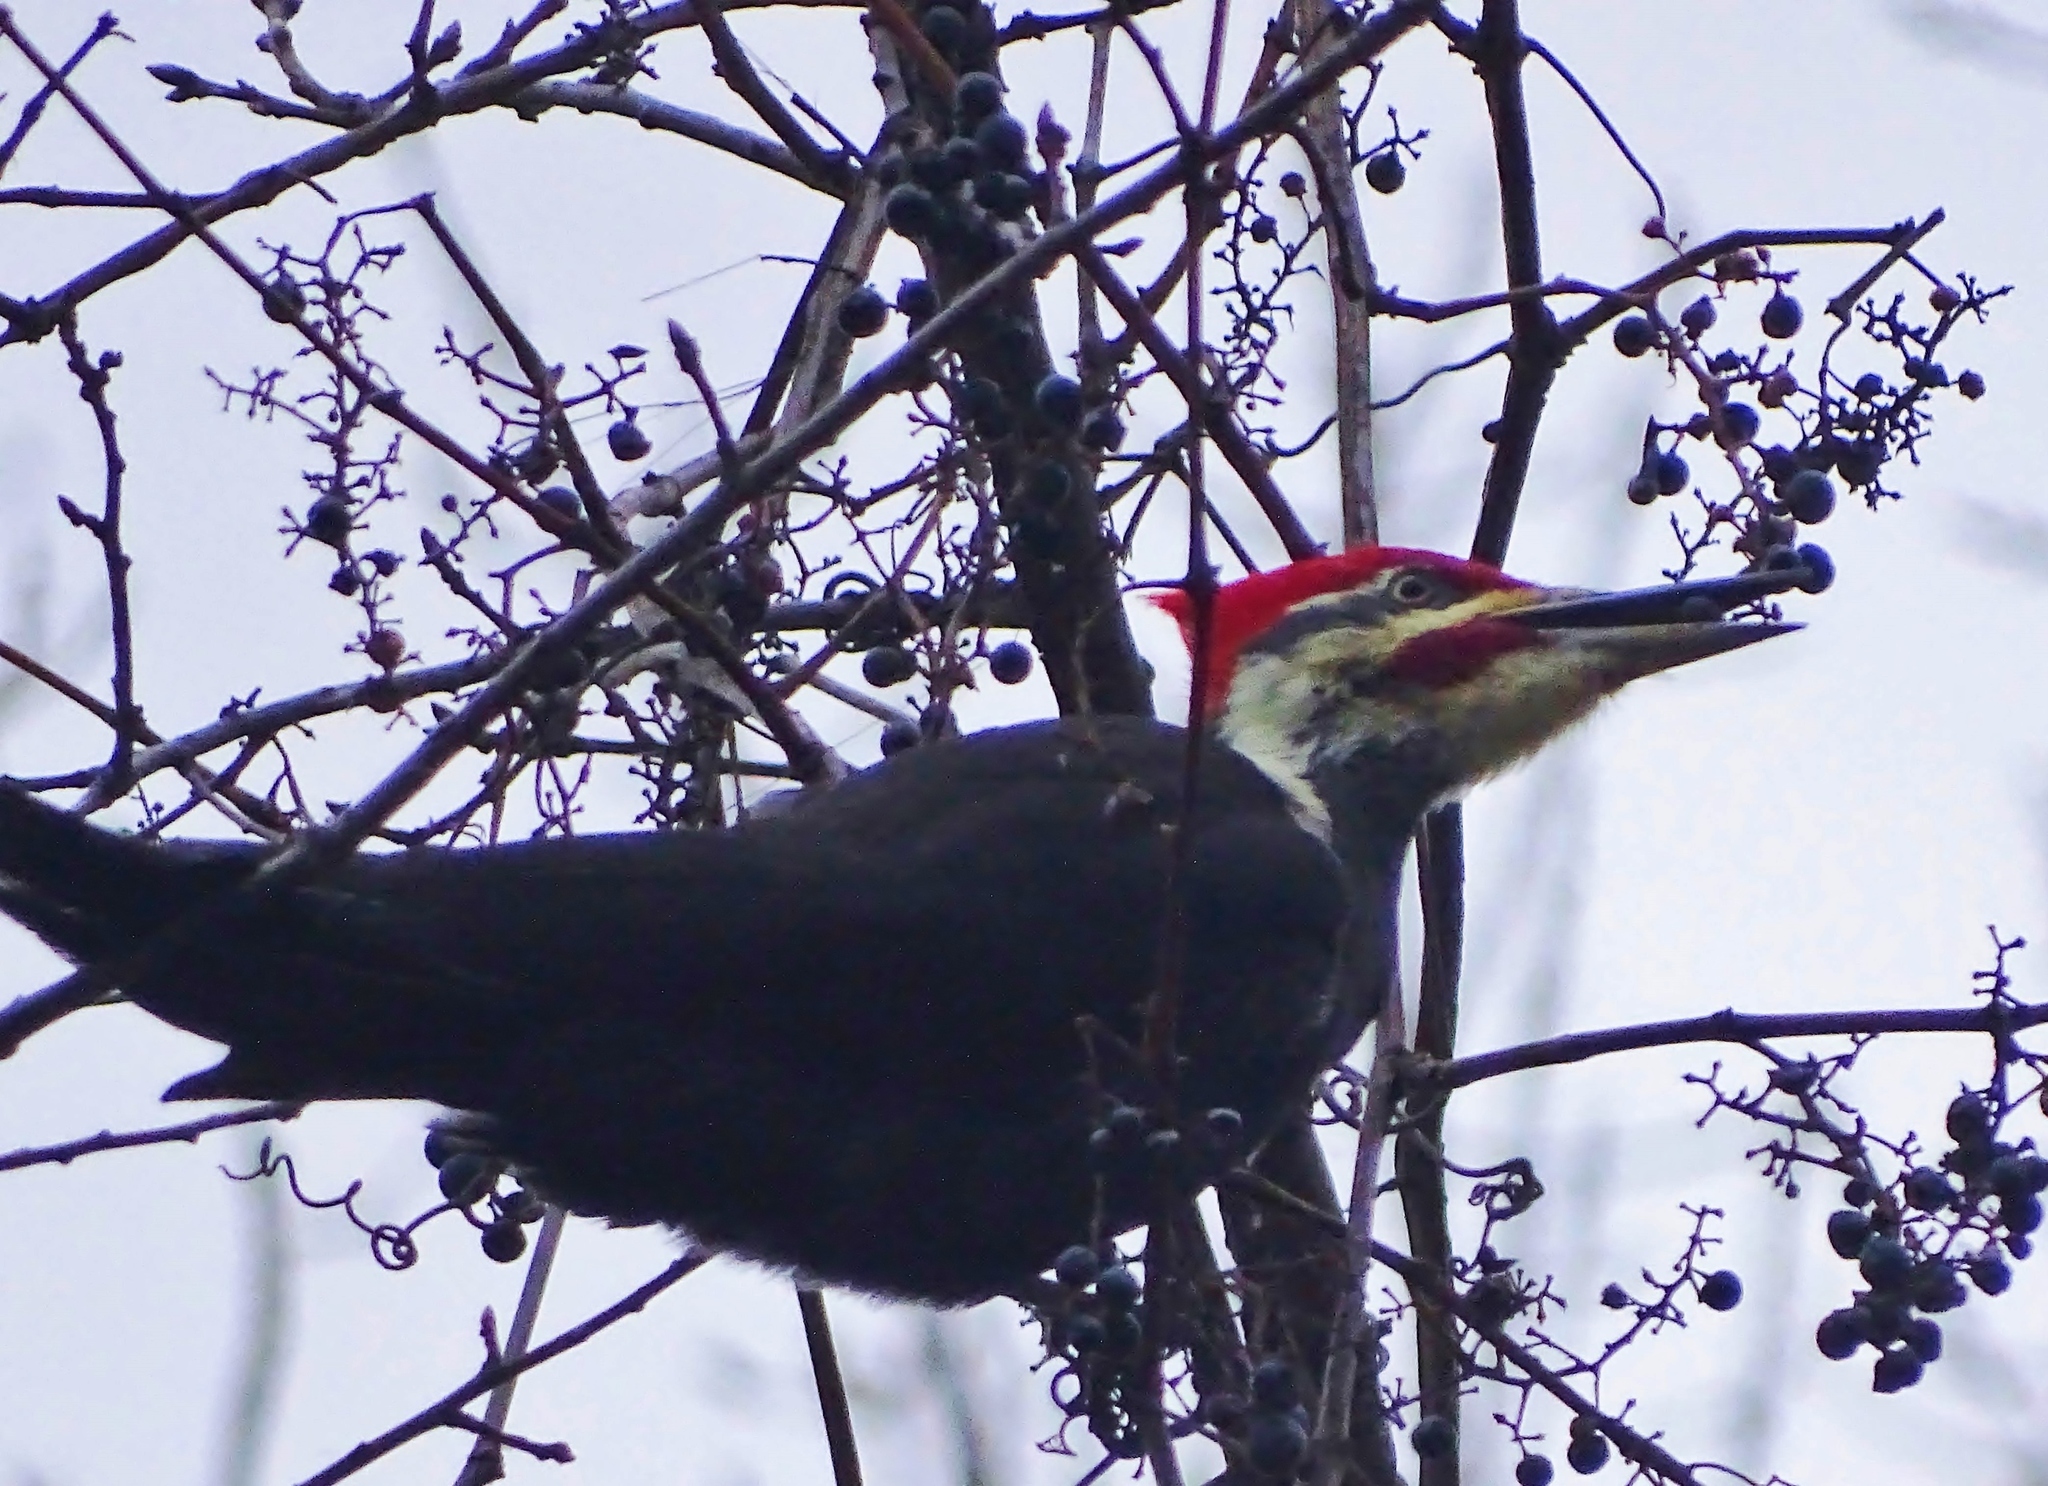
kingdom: Animalia
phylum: Chordata
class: Aves
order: Piciformes
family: Picidae
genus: Dryocopus
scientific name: Dryocopus pileatus
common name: Pileated woodpecker
